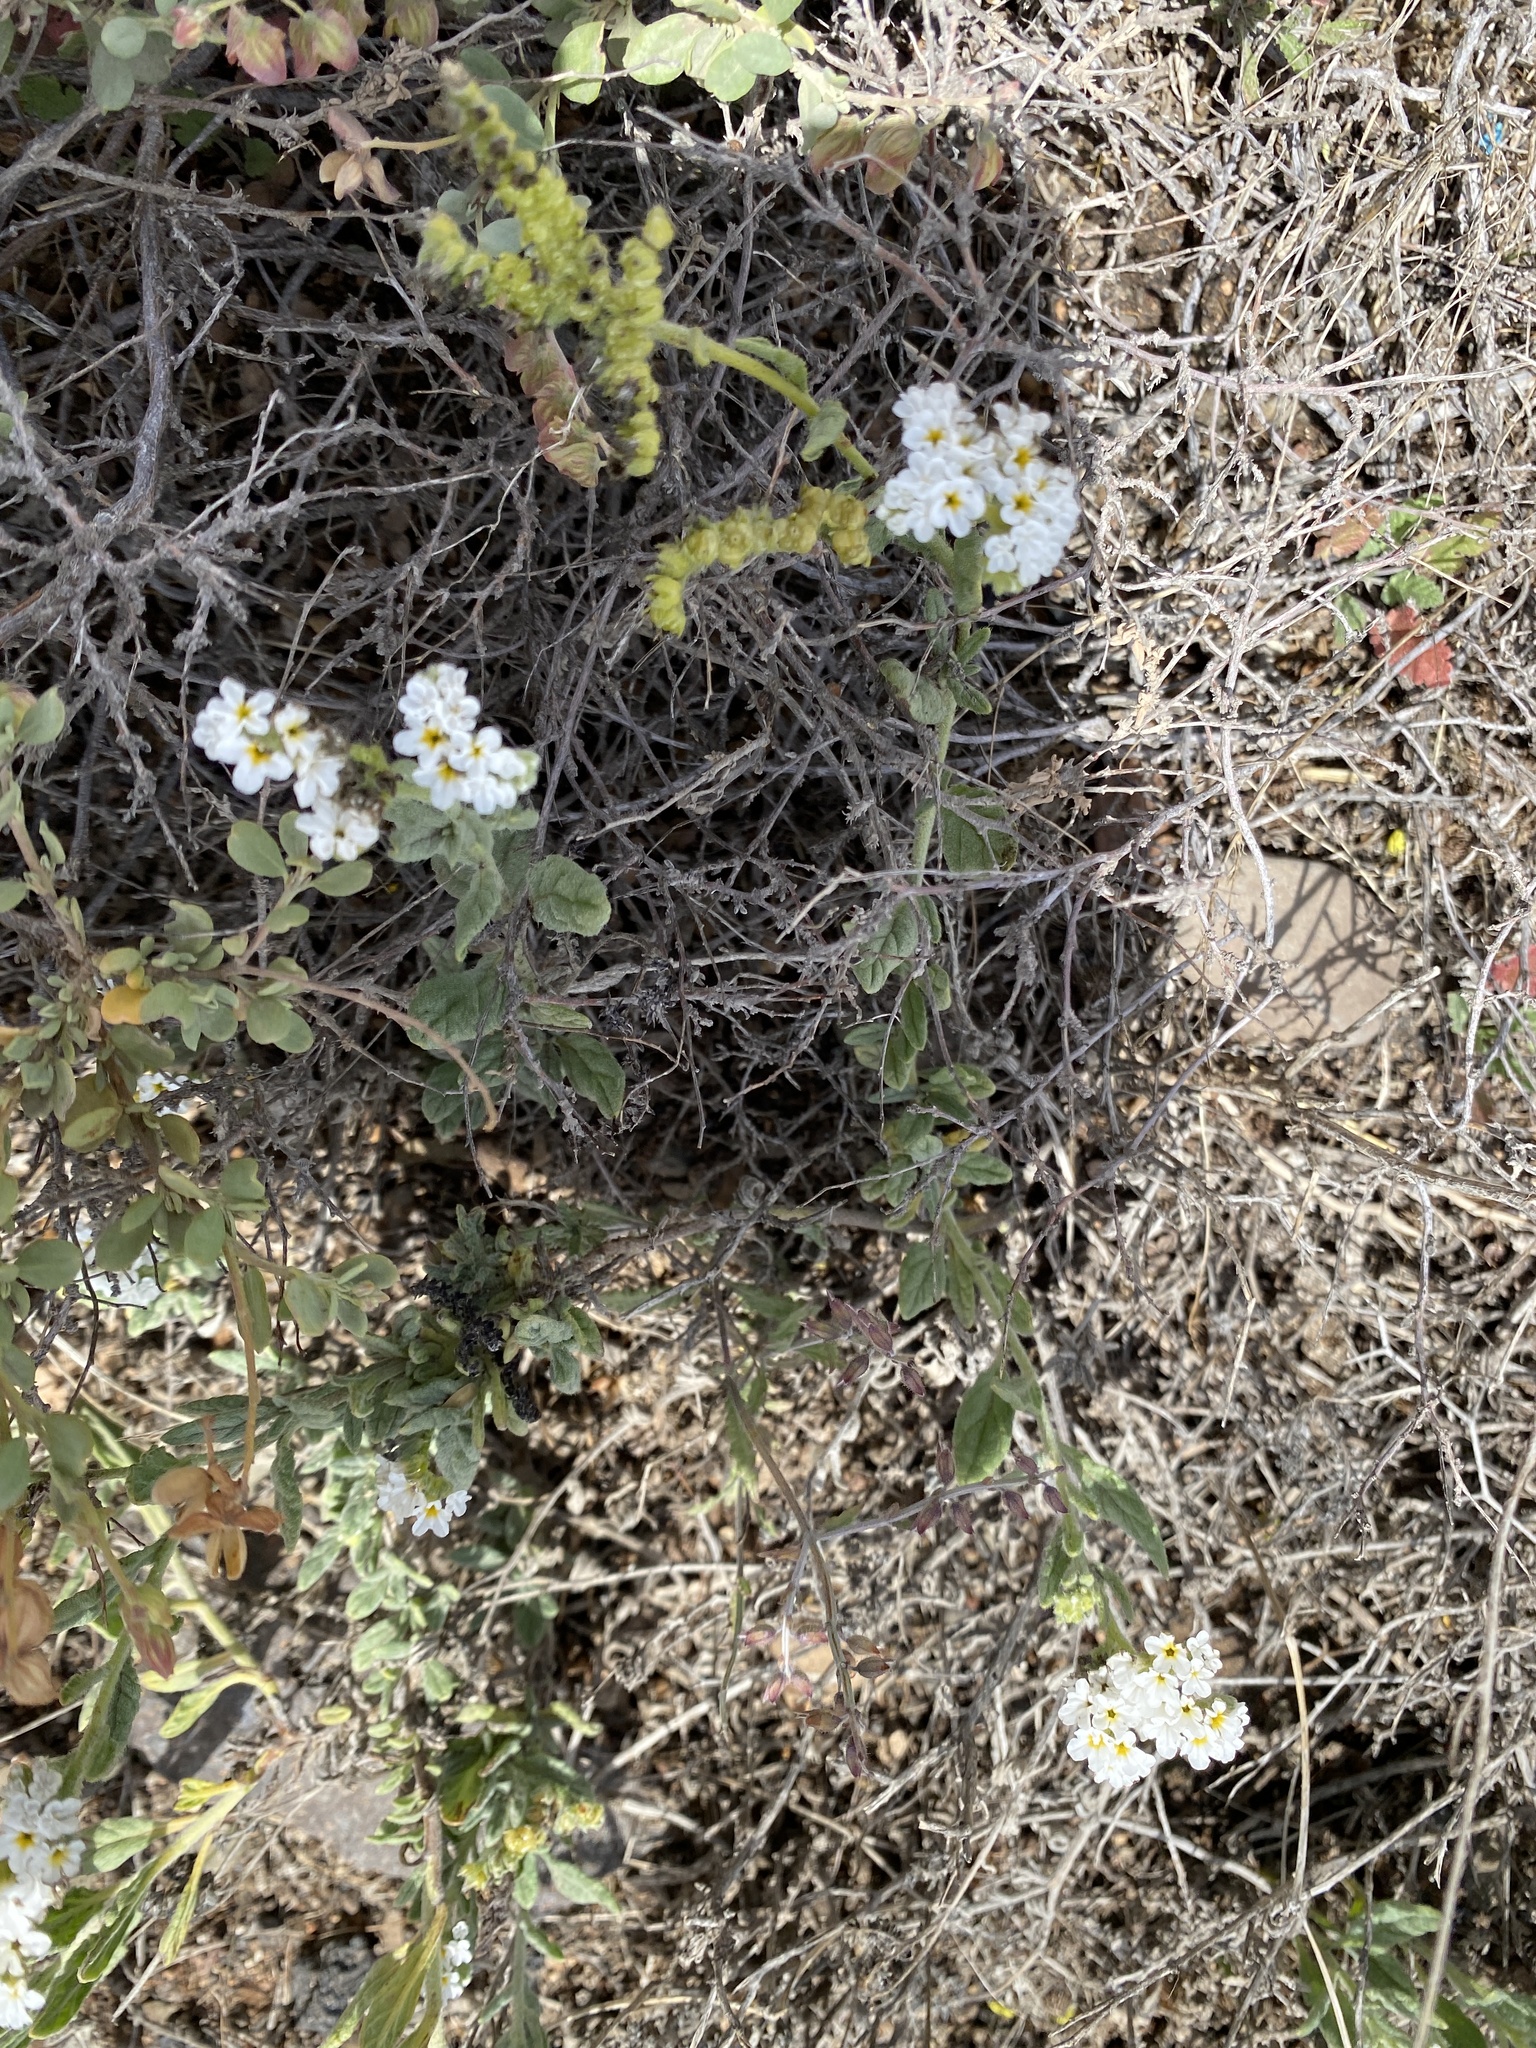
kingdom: Plantae
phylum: Tracheophyta
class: Magnoliopsida
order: Boraginales
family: Heliotropiaceae
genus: Heliotropium
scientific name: Heliotropium ramosissimum
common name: Wavy heliotrope
